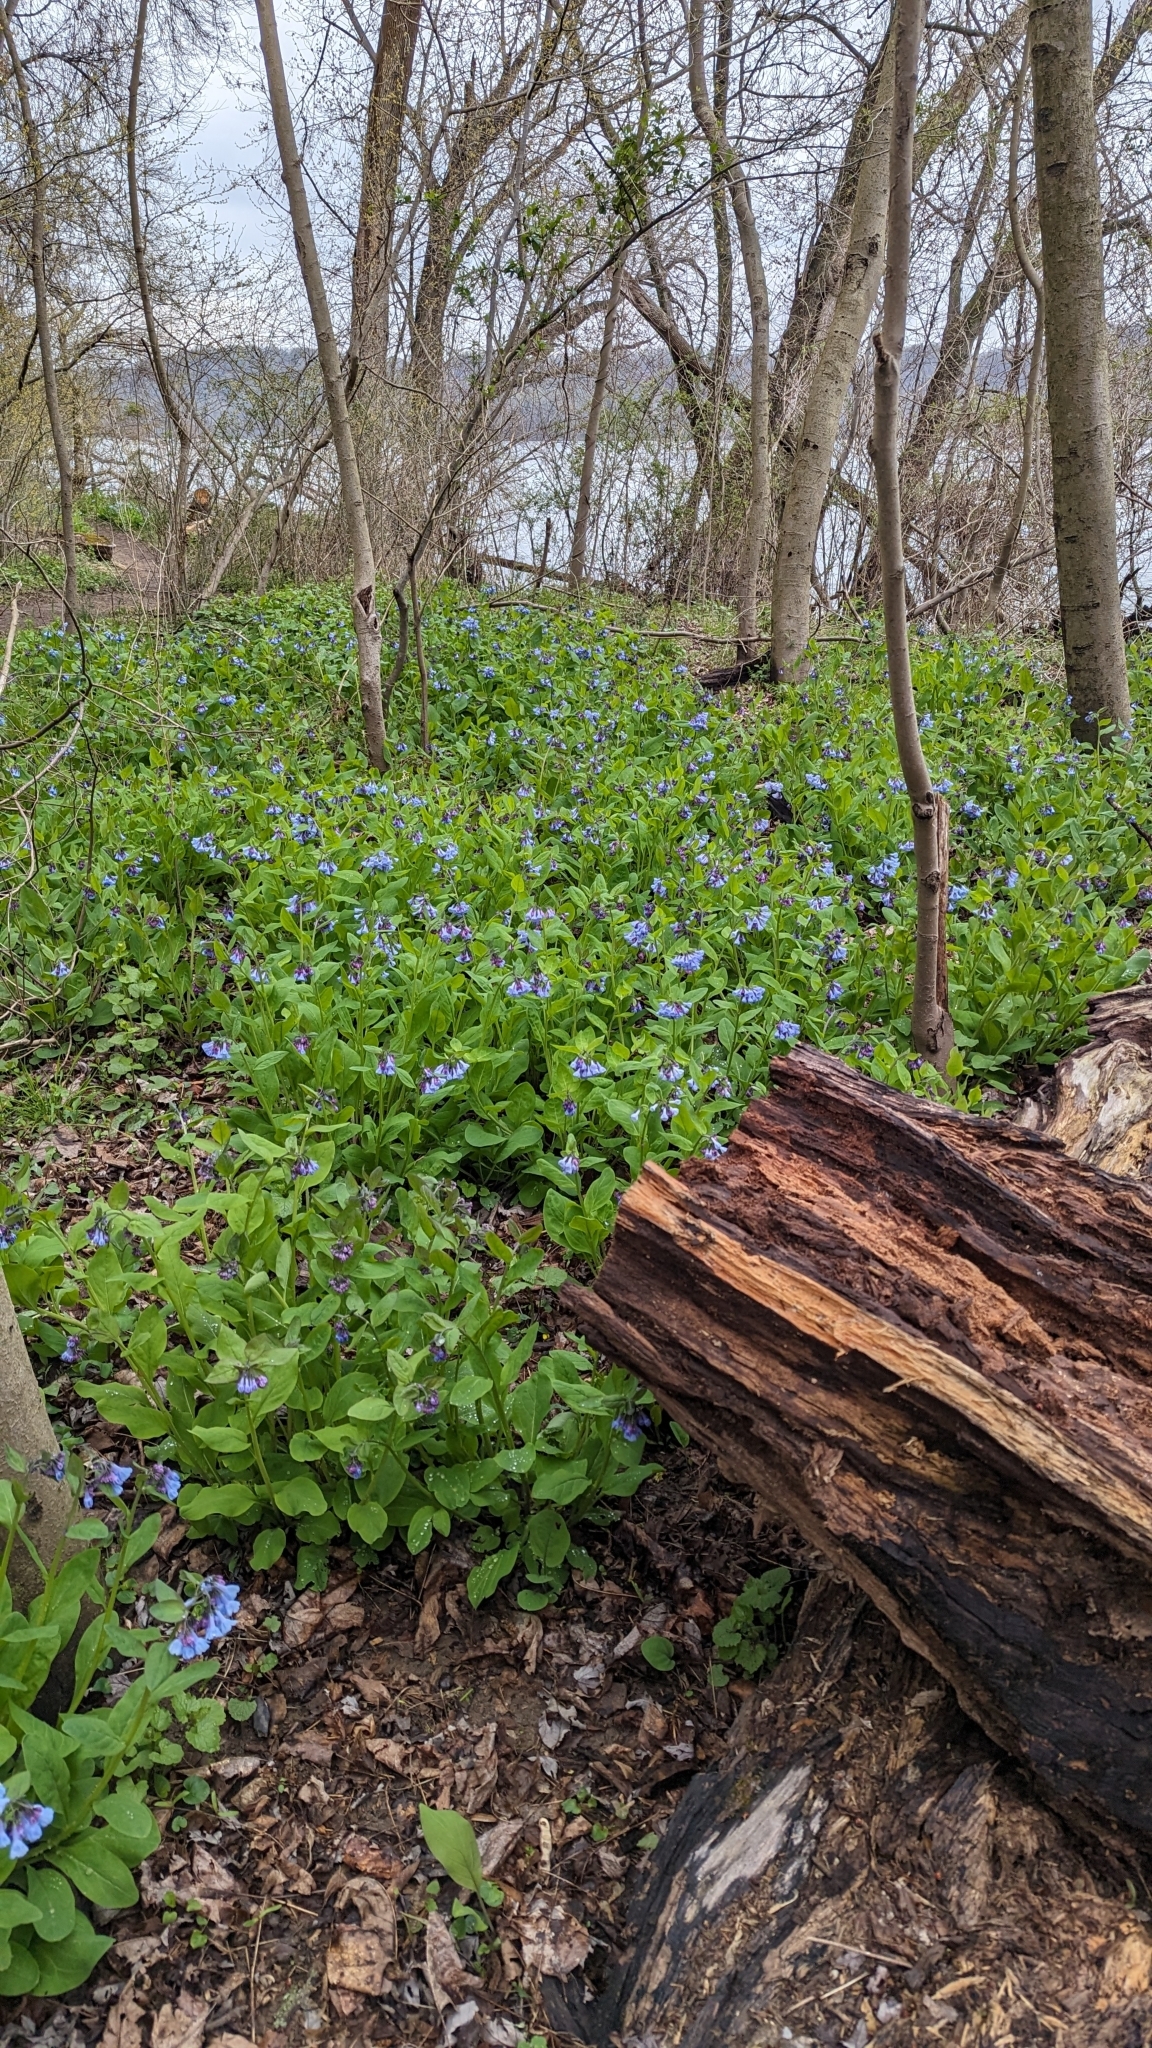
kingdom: Plantae
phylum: Tracheophyta
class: Magnoliopsida
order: Boraginales
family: Boraginaceae
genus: Mertensia
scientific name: Mertensia virginica
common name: Virginia bluebells
